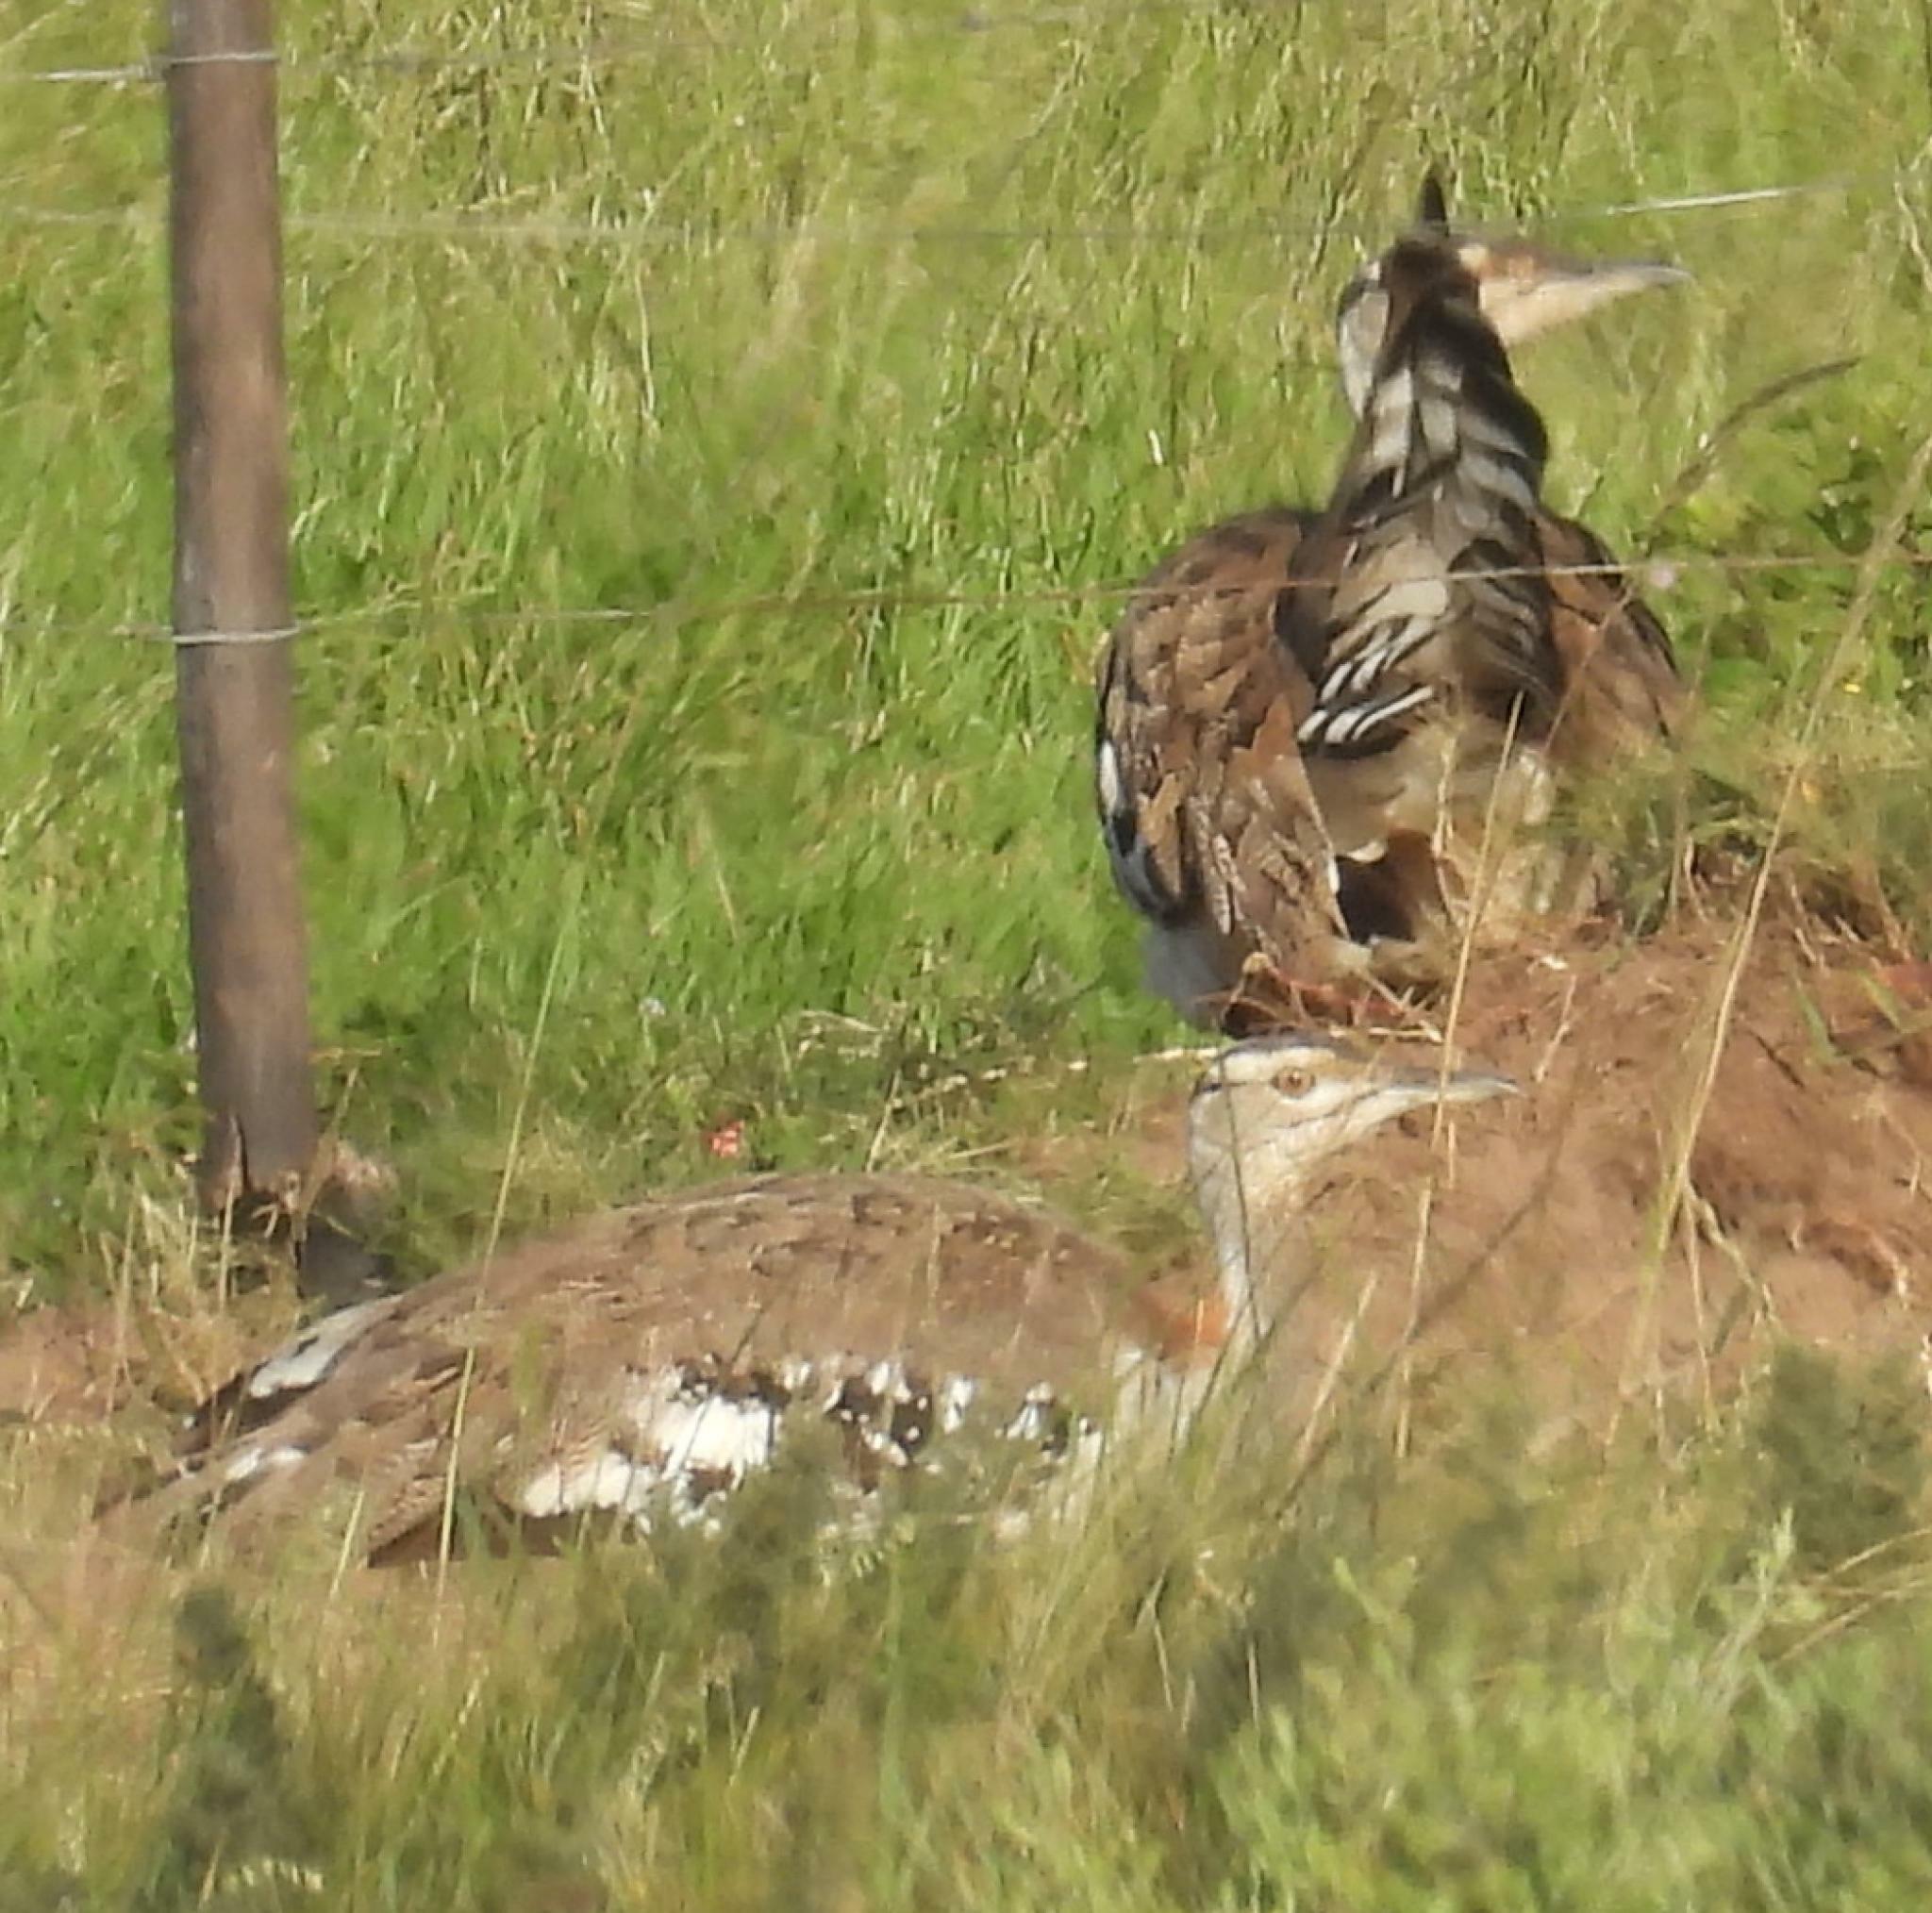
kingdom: Animalia
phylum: Chordata
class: Aves
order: Otidiformes
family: Otididae
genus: Neotis
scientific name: Neotis denhami
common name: Denham's bustard
